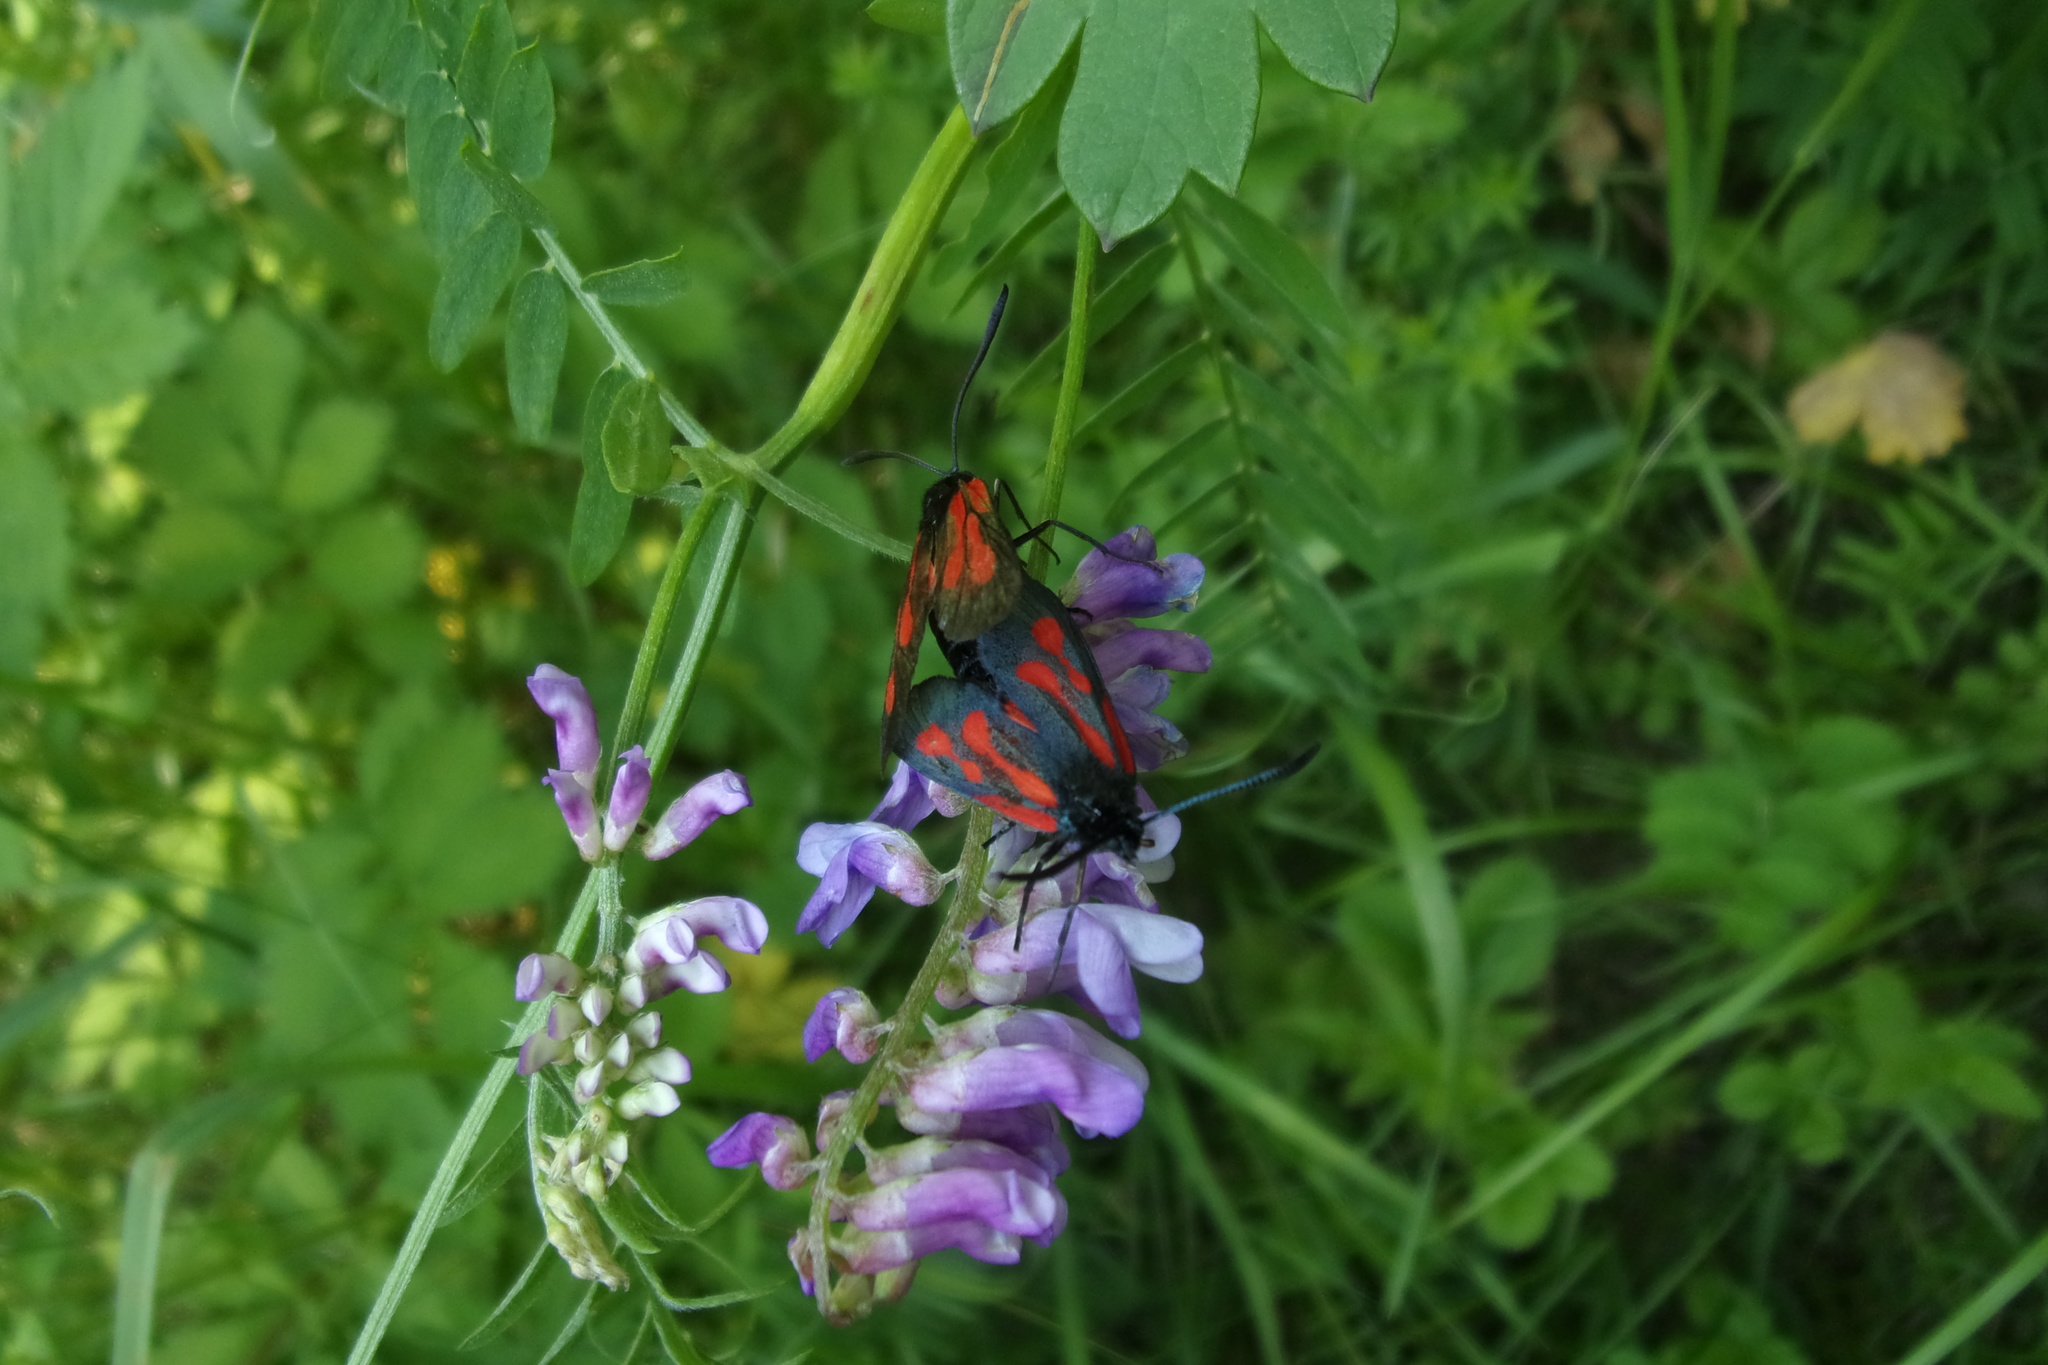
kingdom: Animalia
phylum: Arthropoda
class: Insecta
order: Lepidoptera
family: Zygaenidae
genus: Zygaena
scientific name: Zygaena osterodensis
